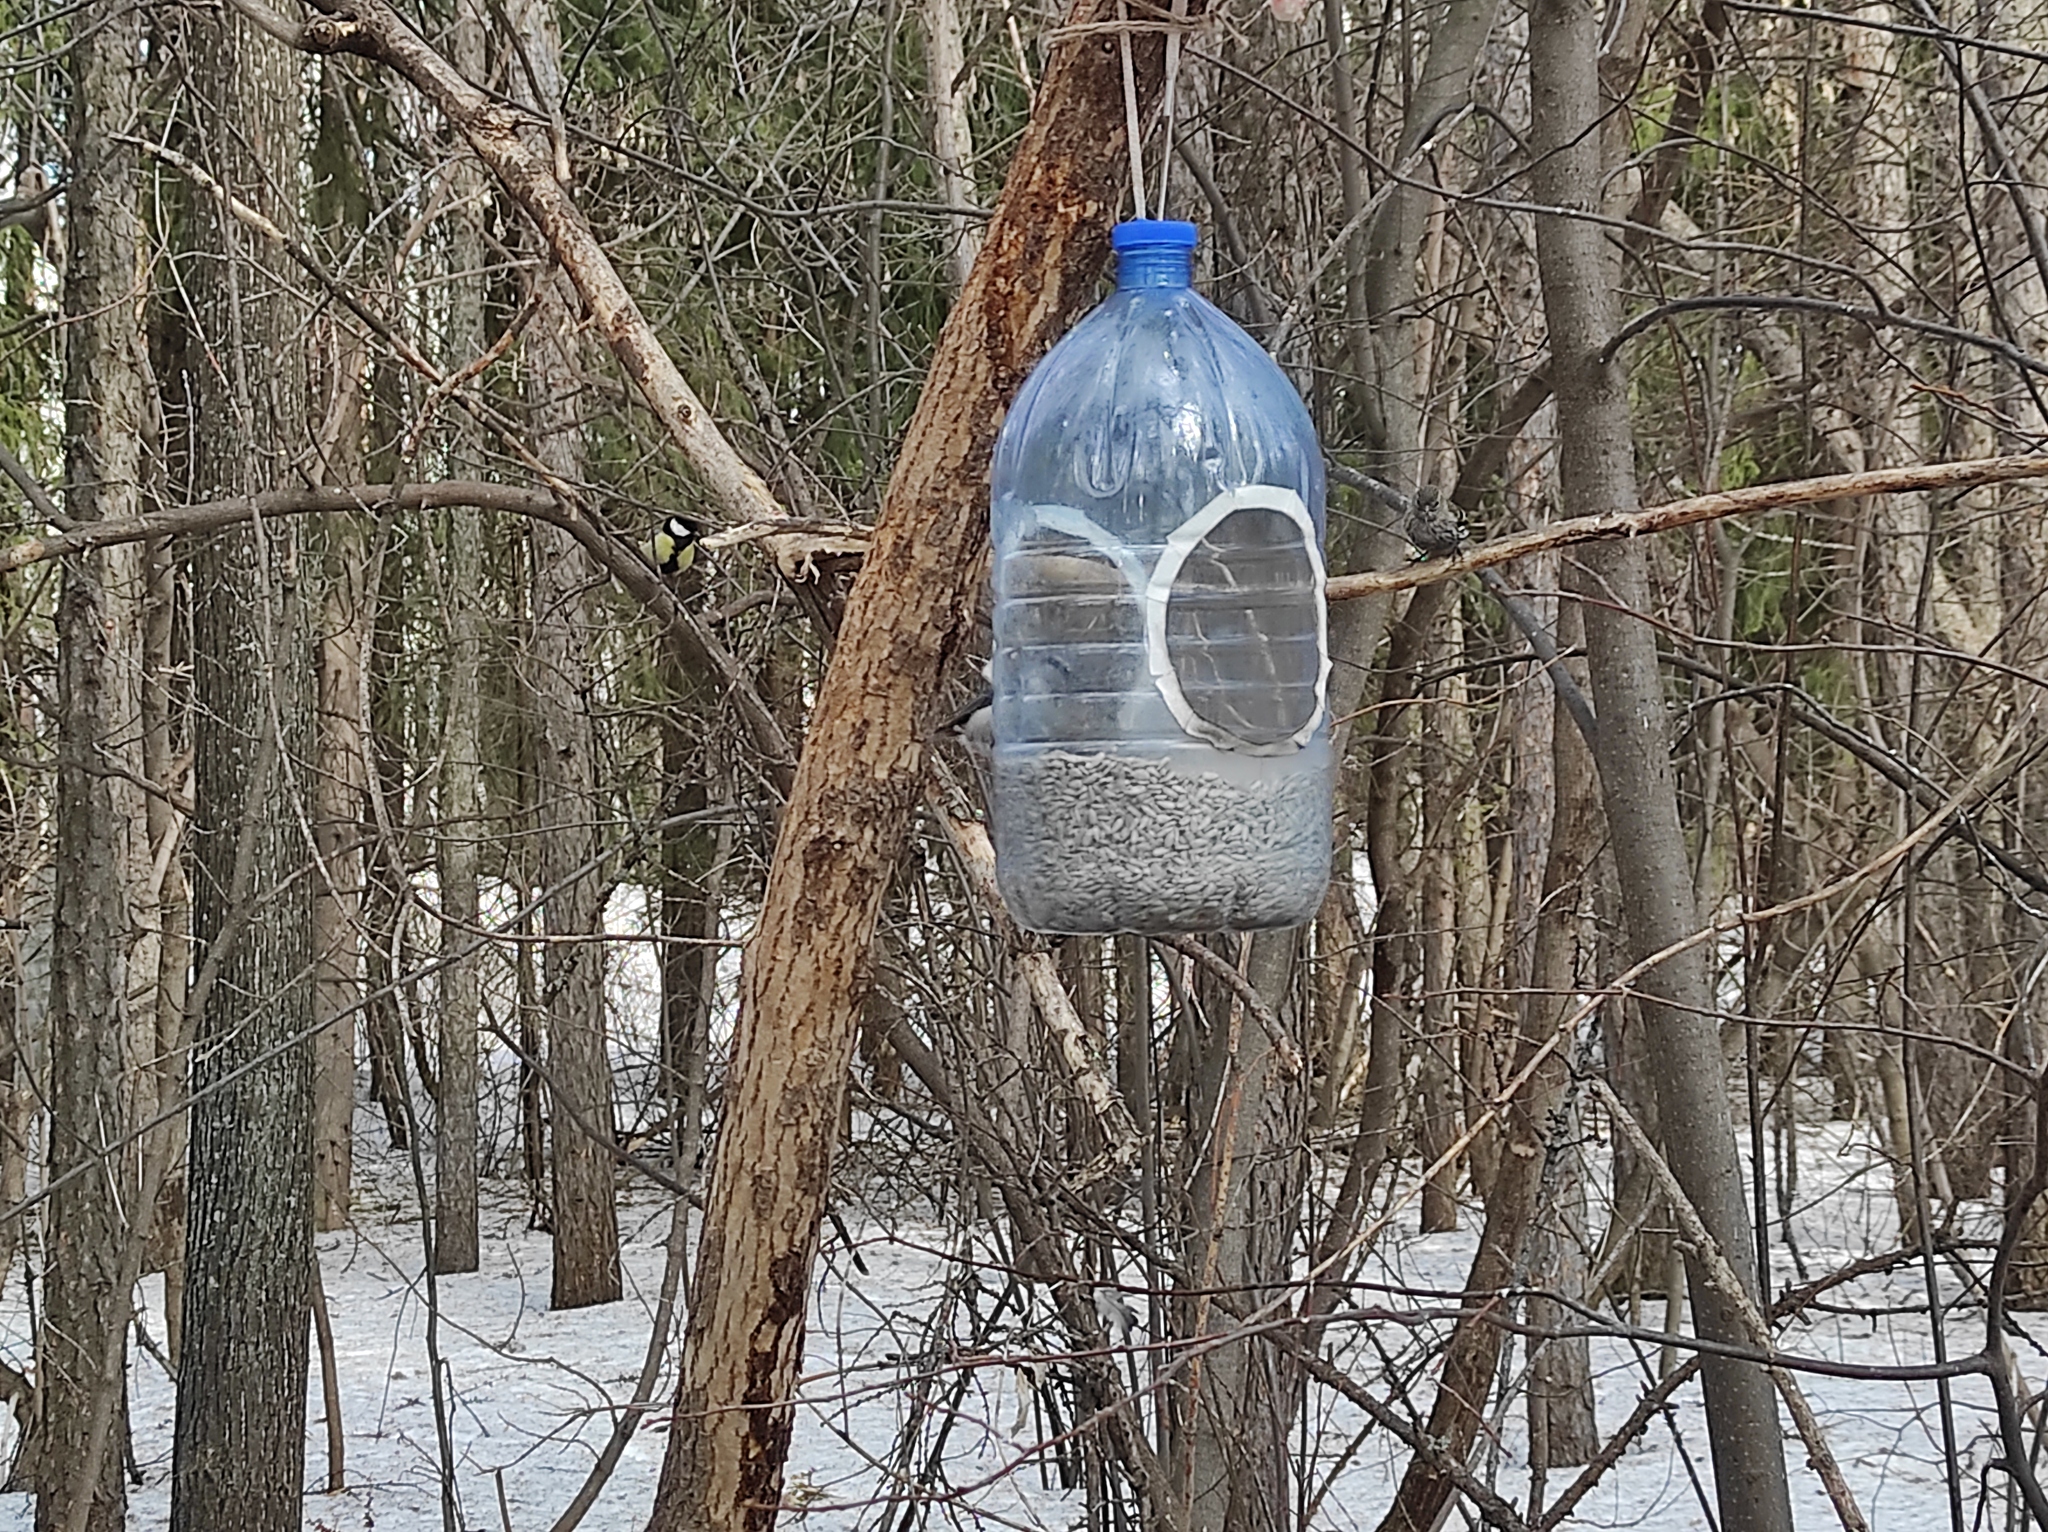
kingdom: Animalia
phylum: Chordata
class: Aves
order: Passeriformes
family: Fringillidae
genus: Spinus
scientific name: Spinus spinus
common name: Eurasian siskin
